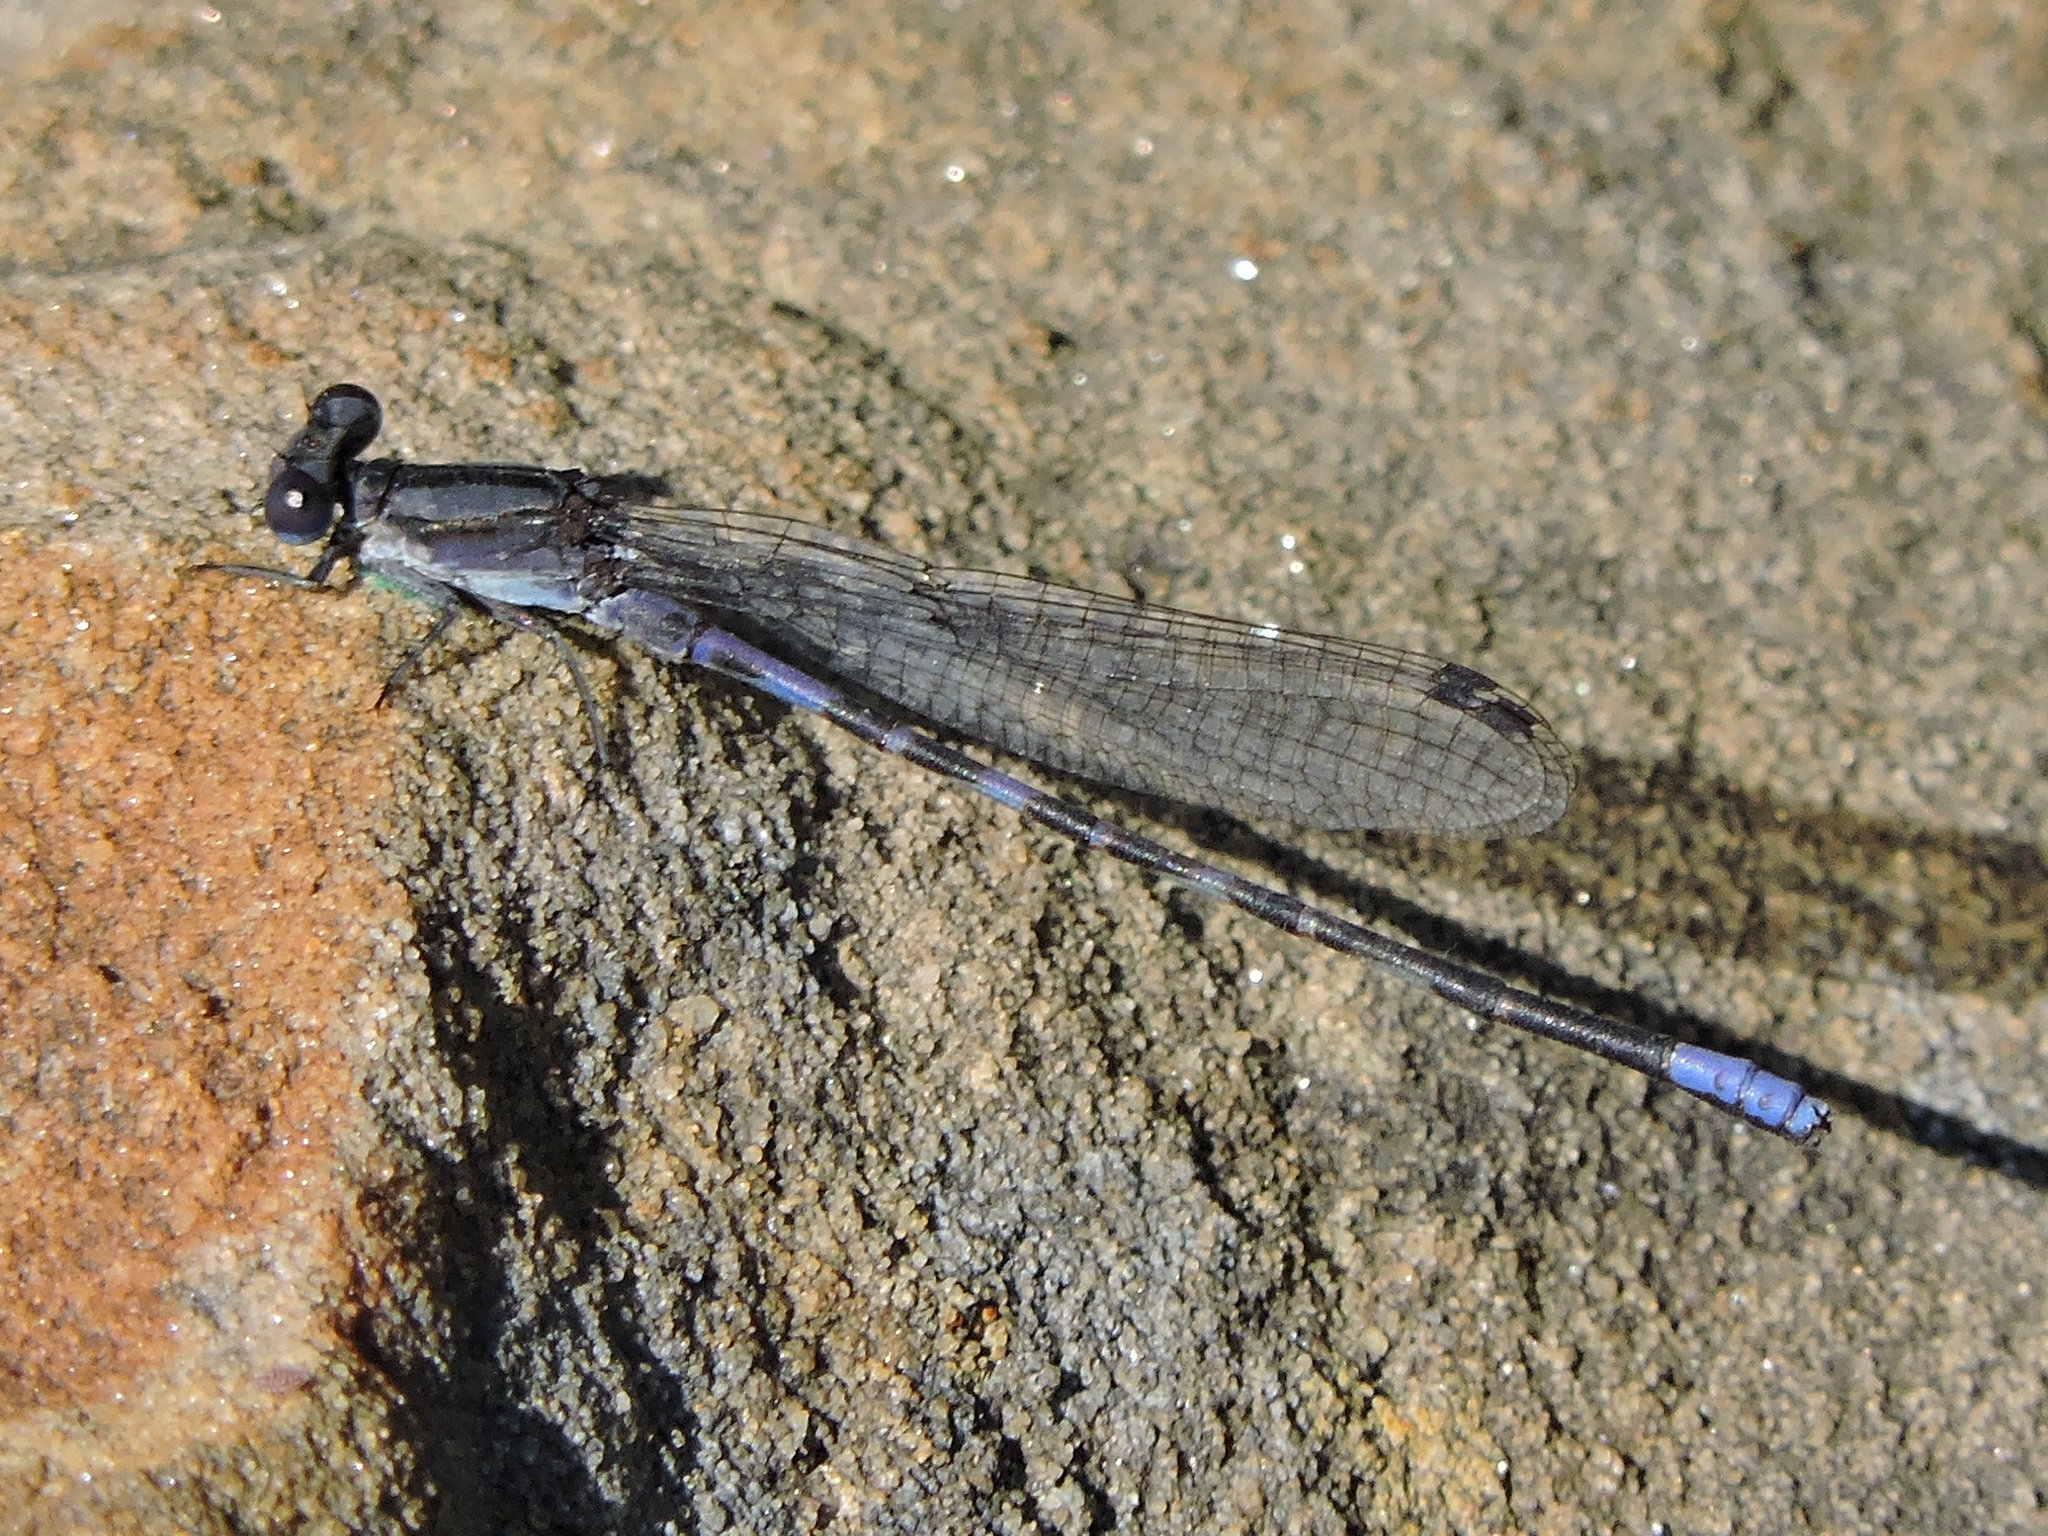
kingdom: Animalia
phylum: Arthropoda
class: Insecta
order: Odonata
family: Coenagrionidae
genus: Argia
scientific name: Argia immunda
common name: Kiowa dancer
